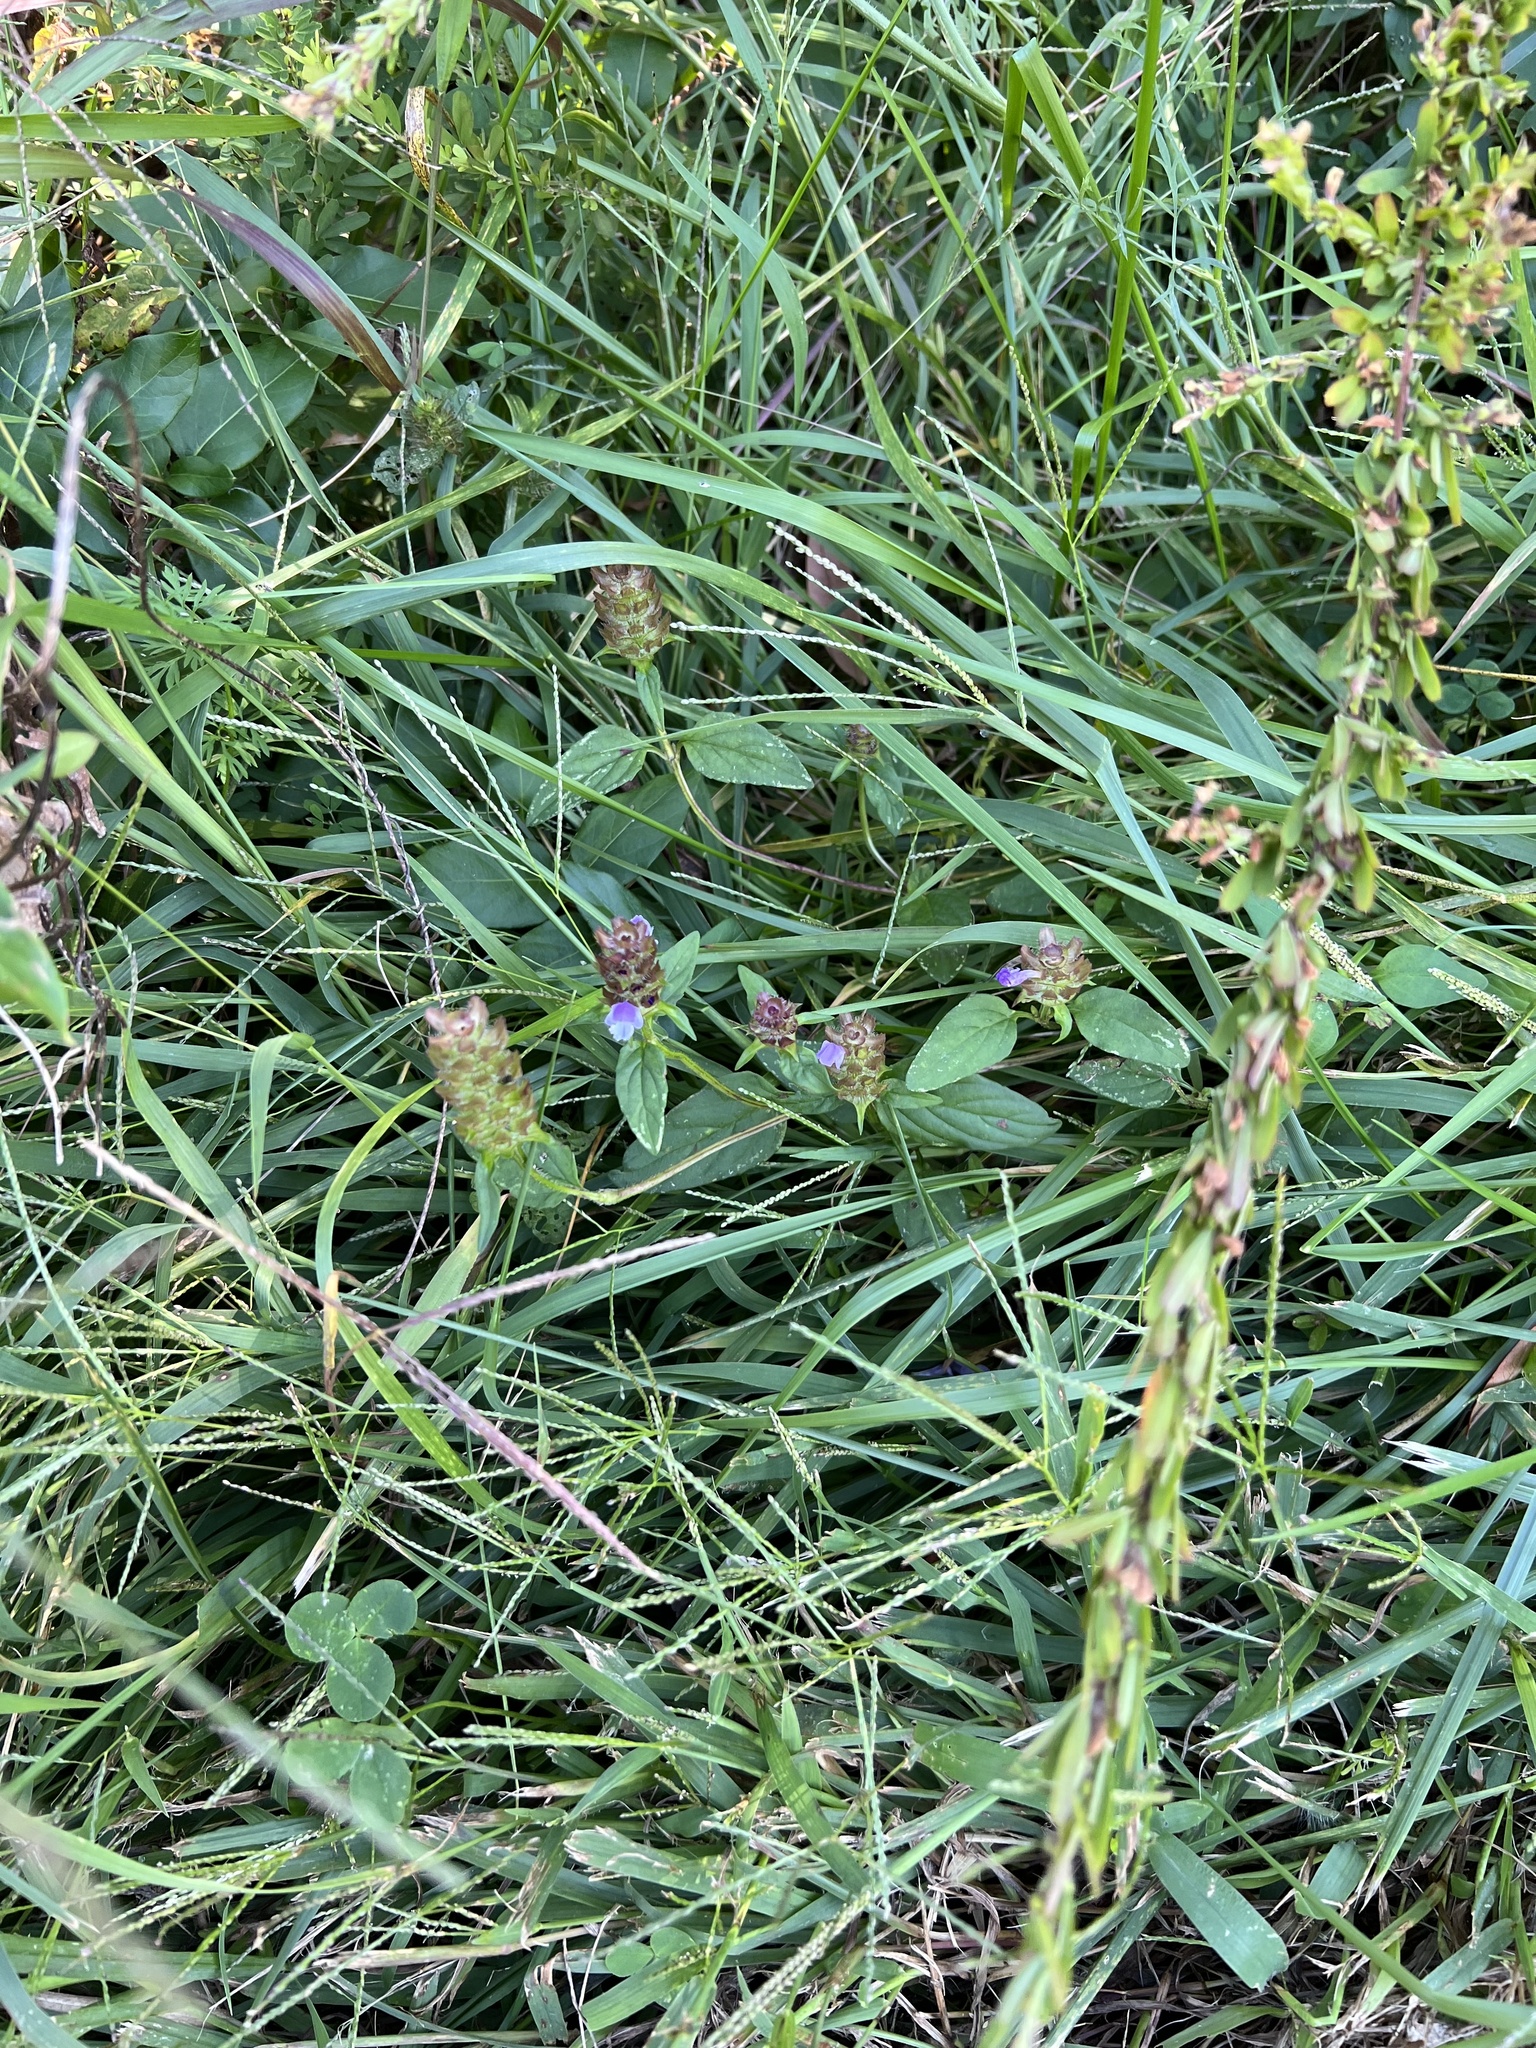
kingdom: Plantae
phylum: Tracheophyta
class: Magnoliopsida
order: Lamiales
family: Lamiaceae
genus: Prunella
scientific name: Prunella vulgaris
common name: Heal-all
